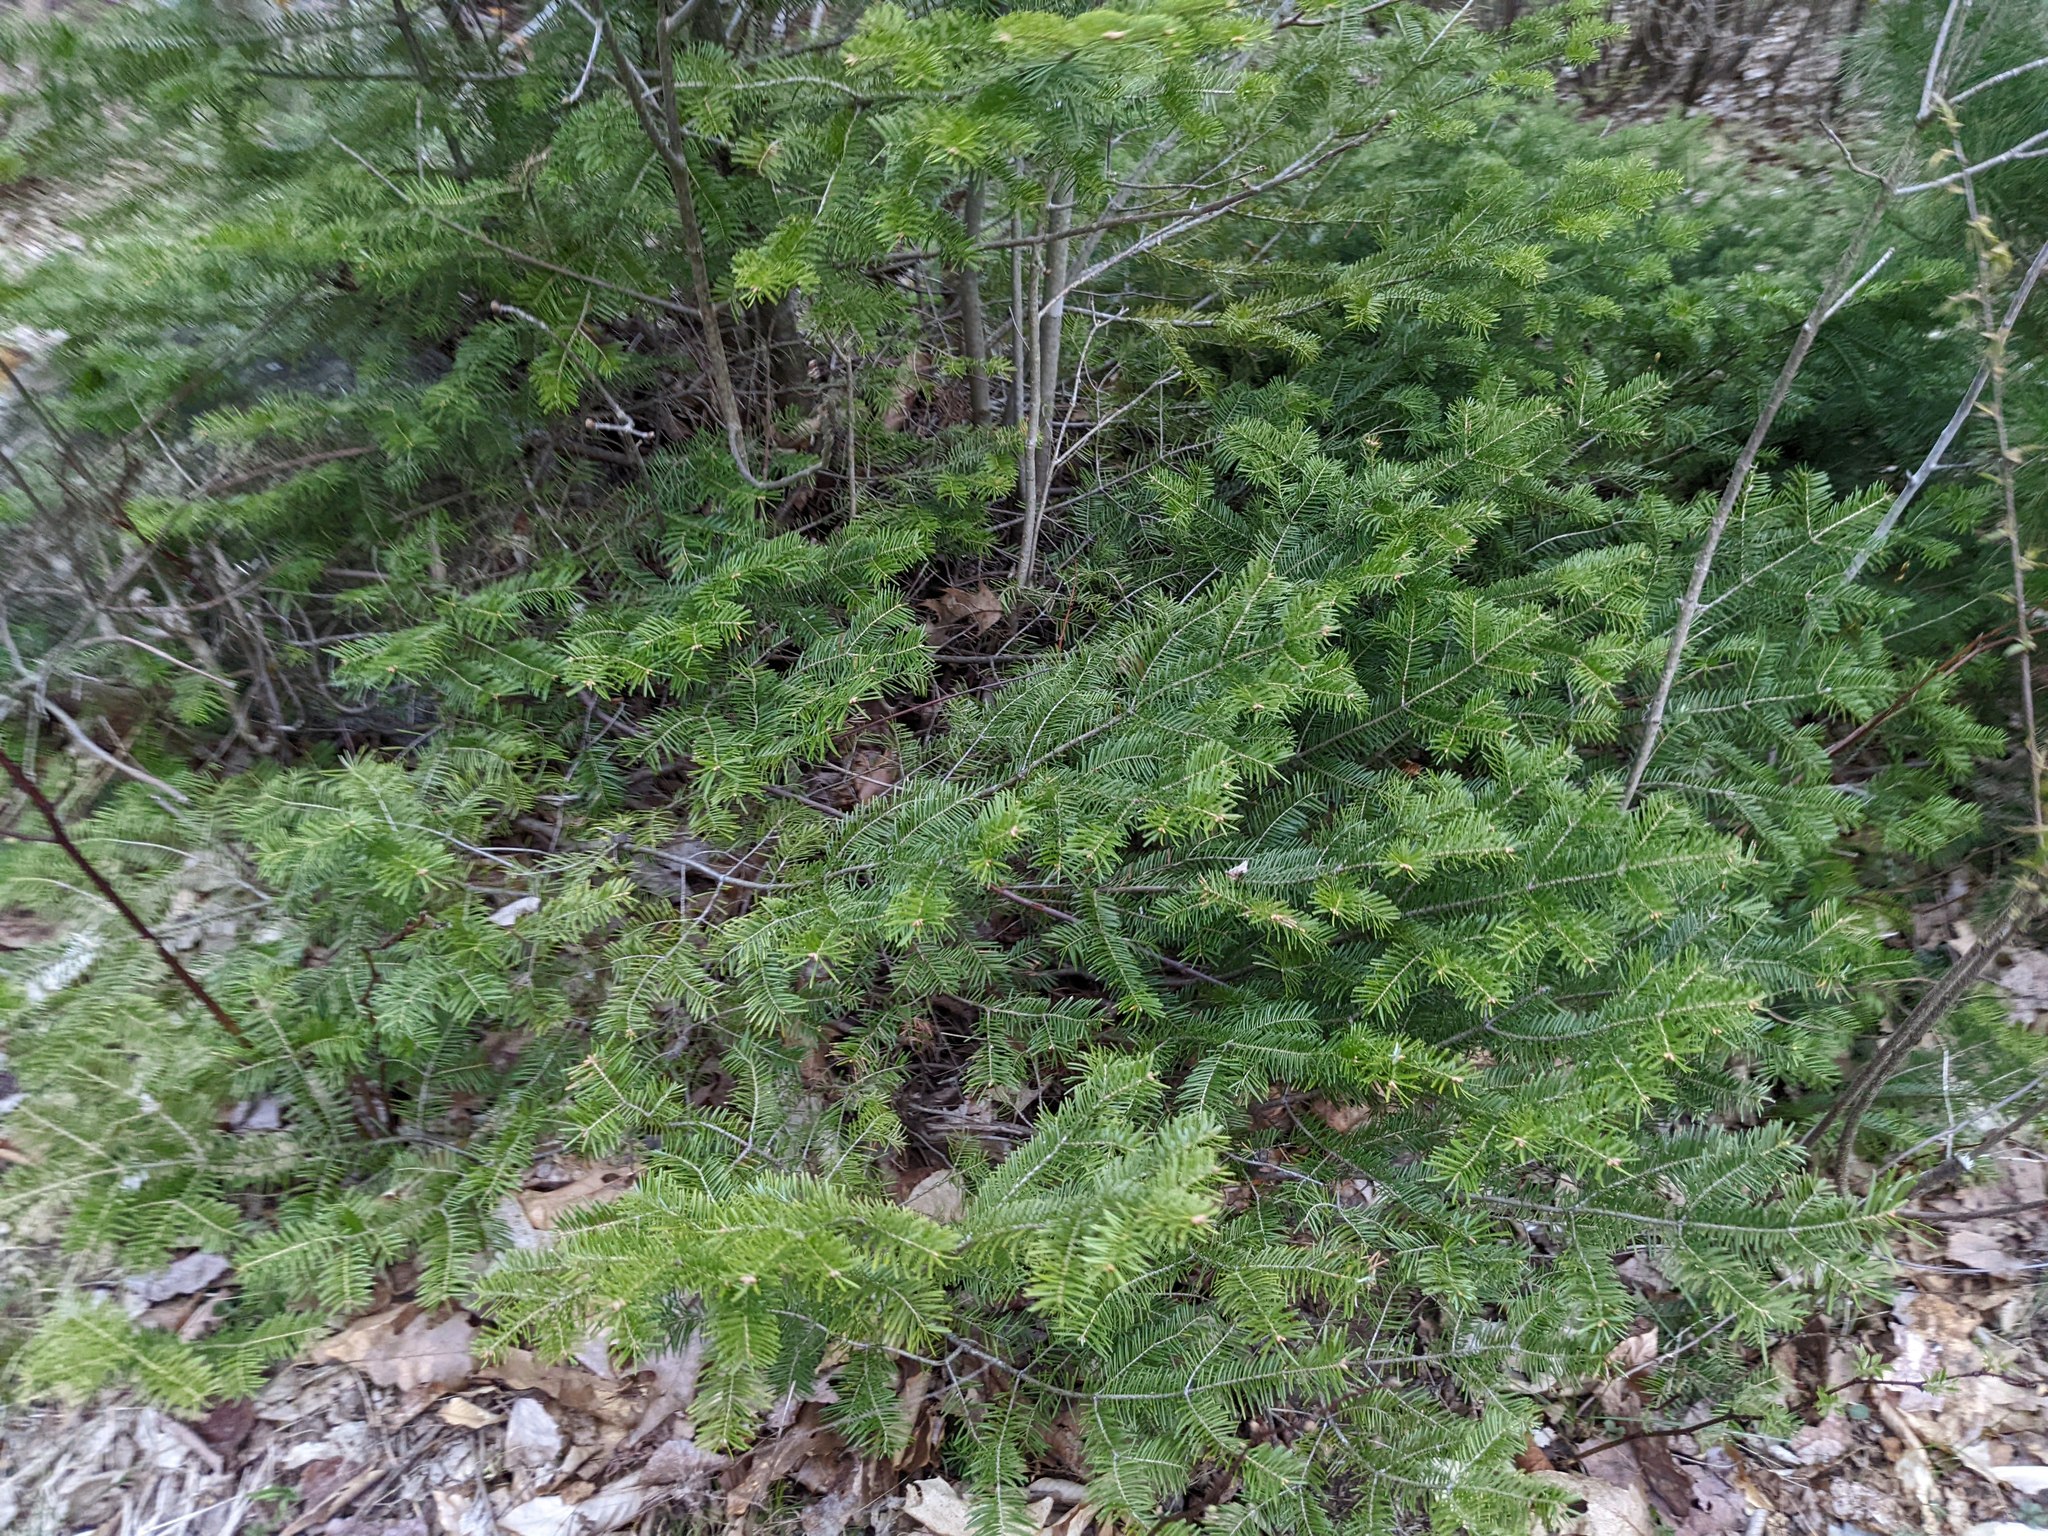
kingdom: Plantae
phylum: Tracheophyta
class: Pinopsida
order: Pinales
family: Pinaceae
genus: Abies
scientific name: Abies balsamea
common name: Balsam fir
